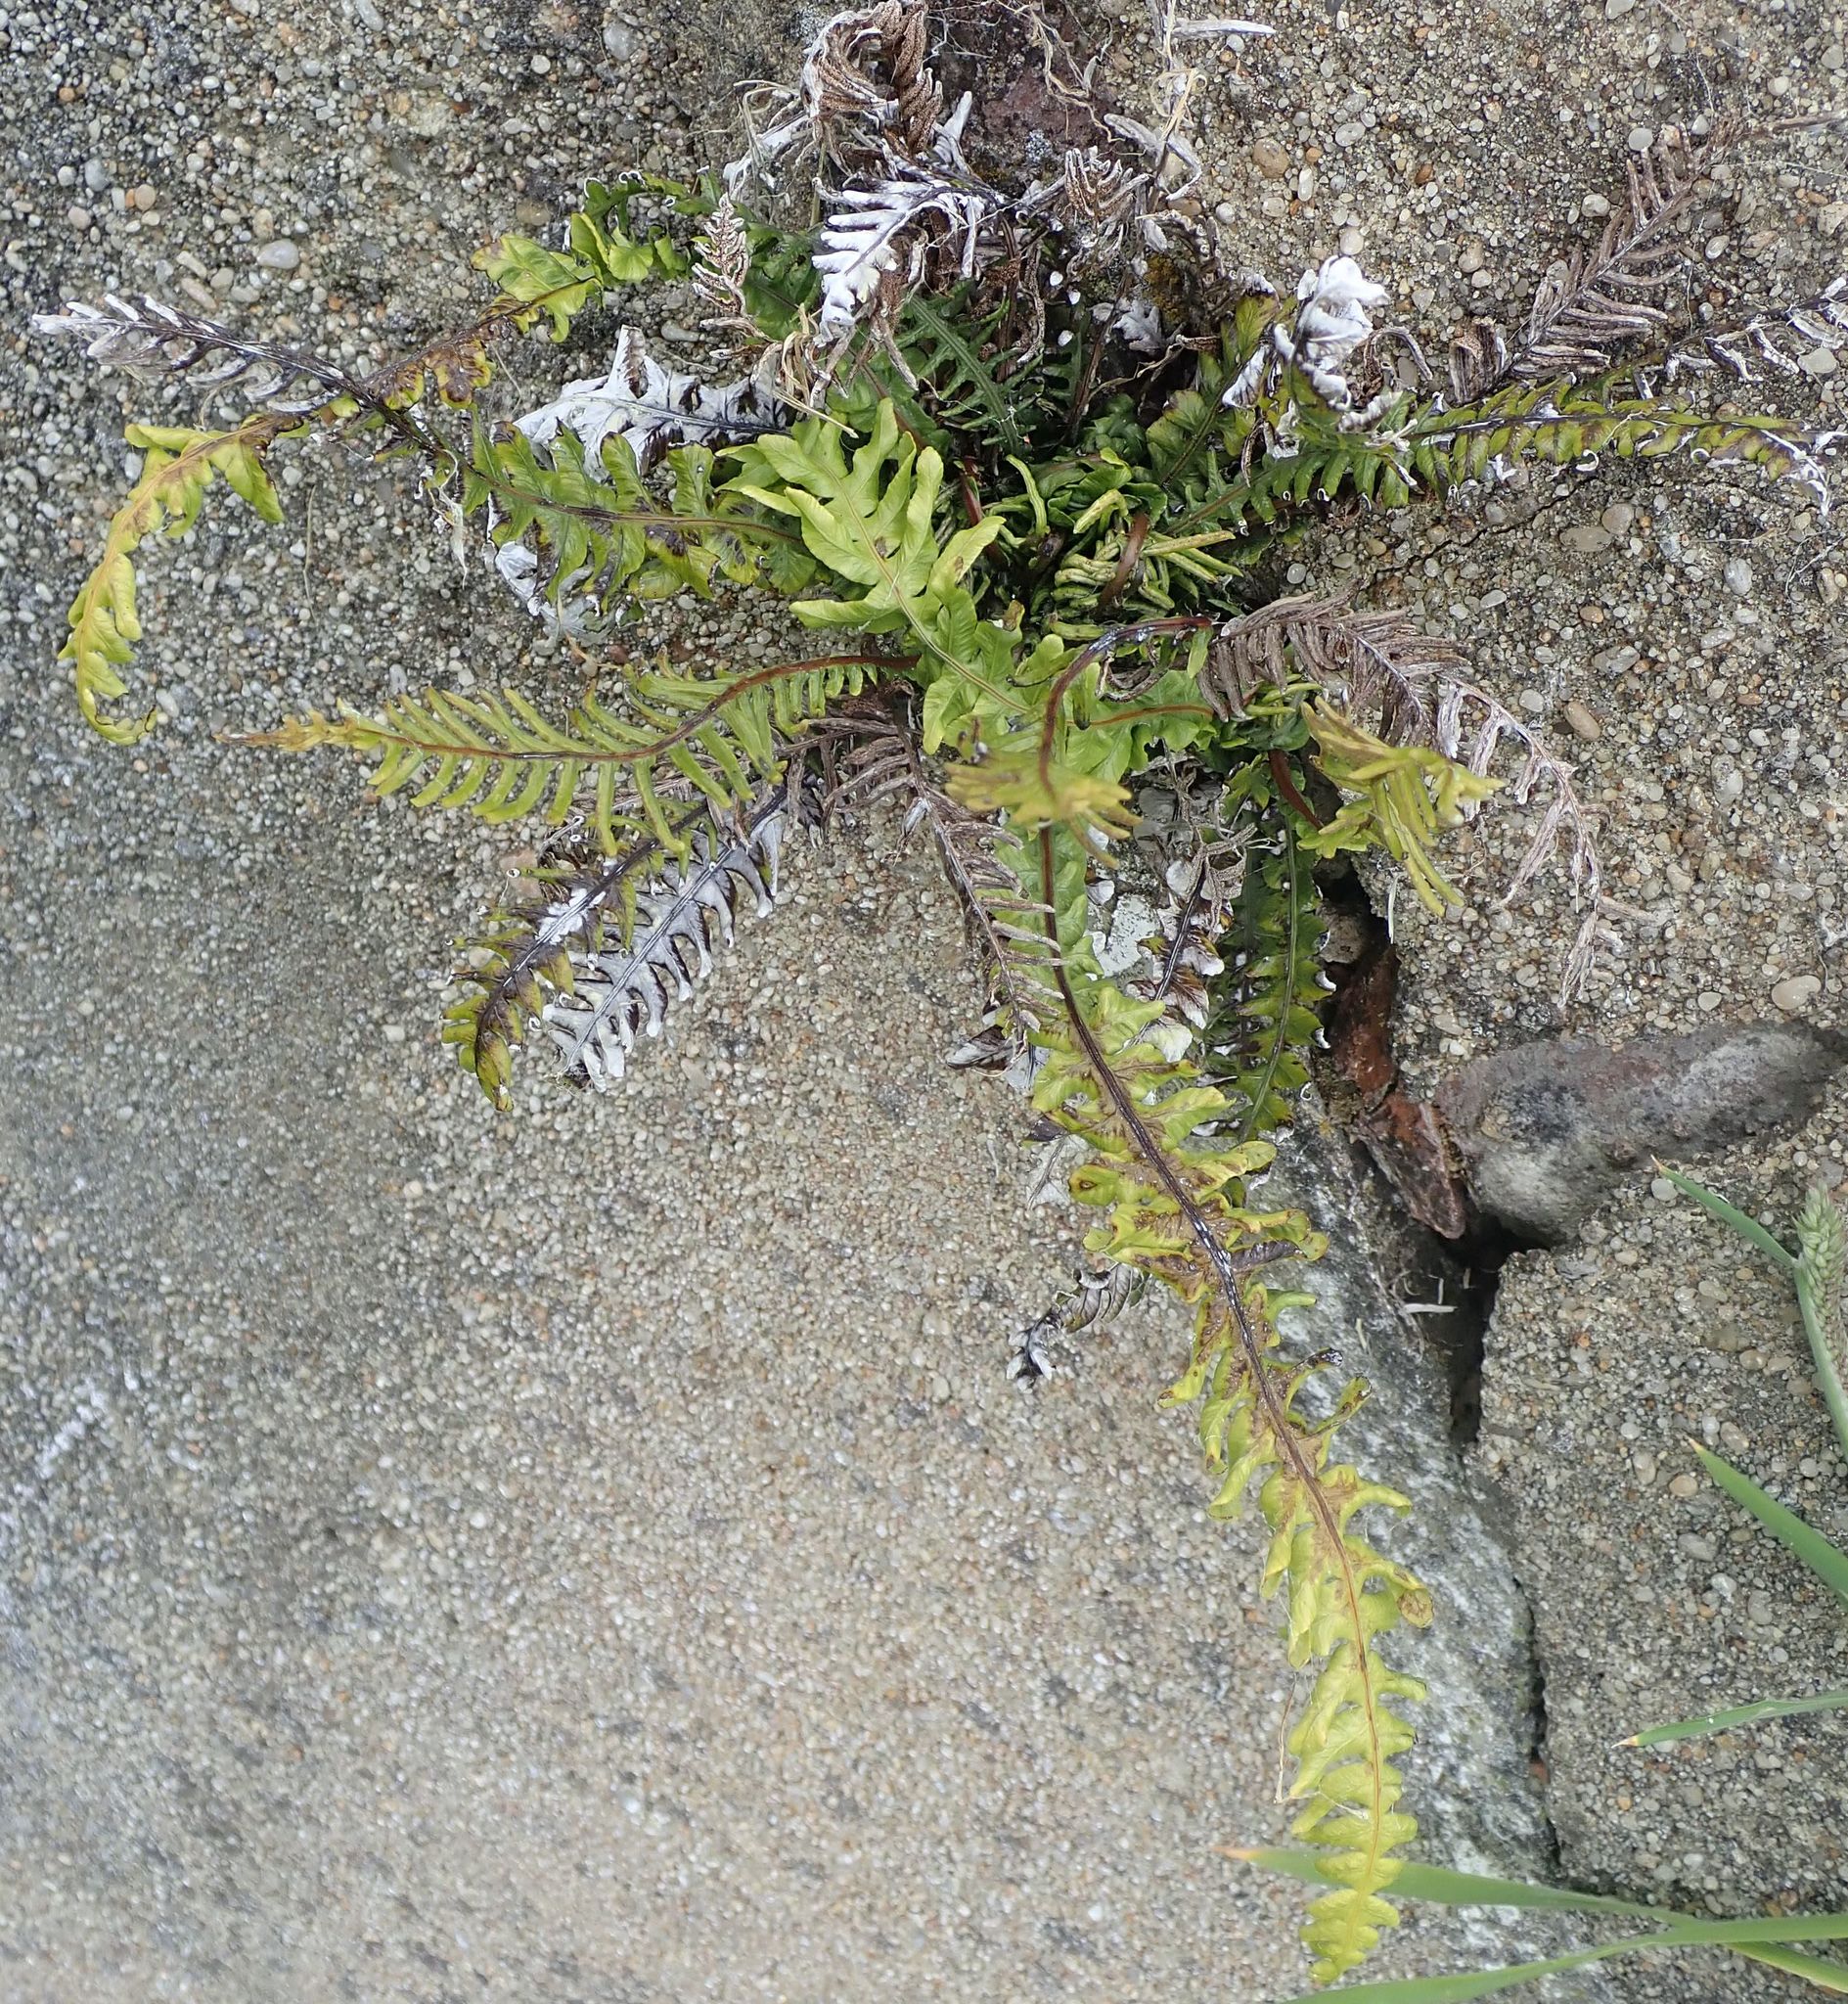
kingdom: Plantae
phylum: Tracheophyta
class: Polypodiopsida
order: Polypodiales
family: Blechnaceae
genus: Austroblechnum
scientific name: Austroblechnum lanceolatum
